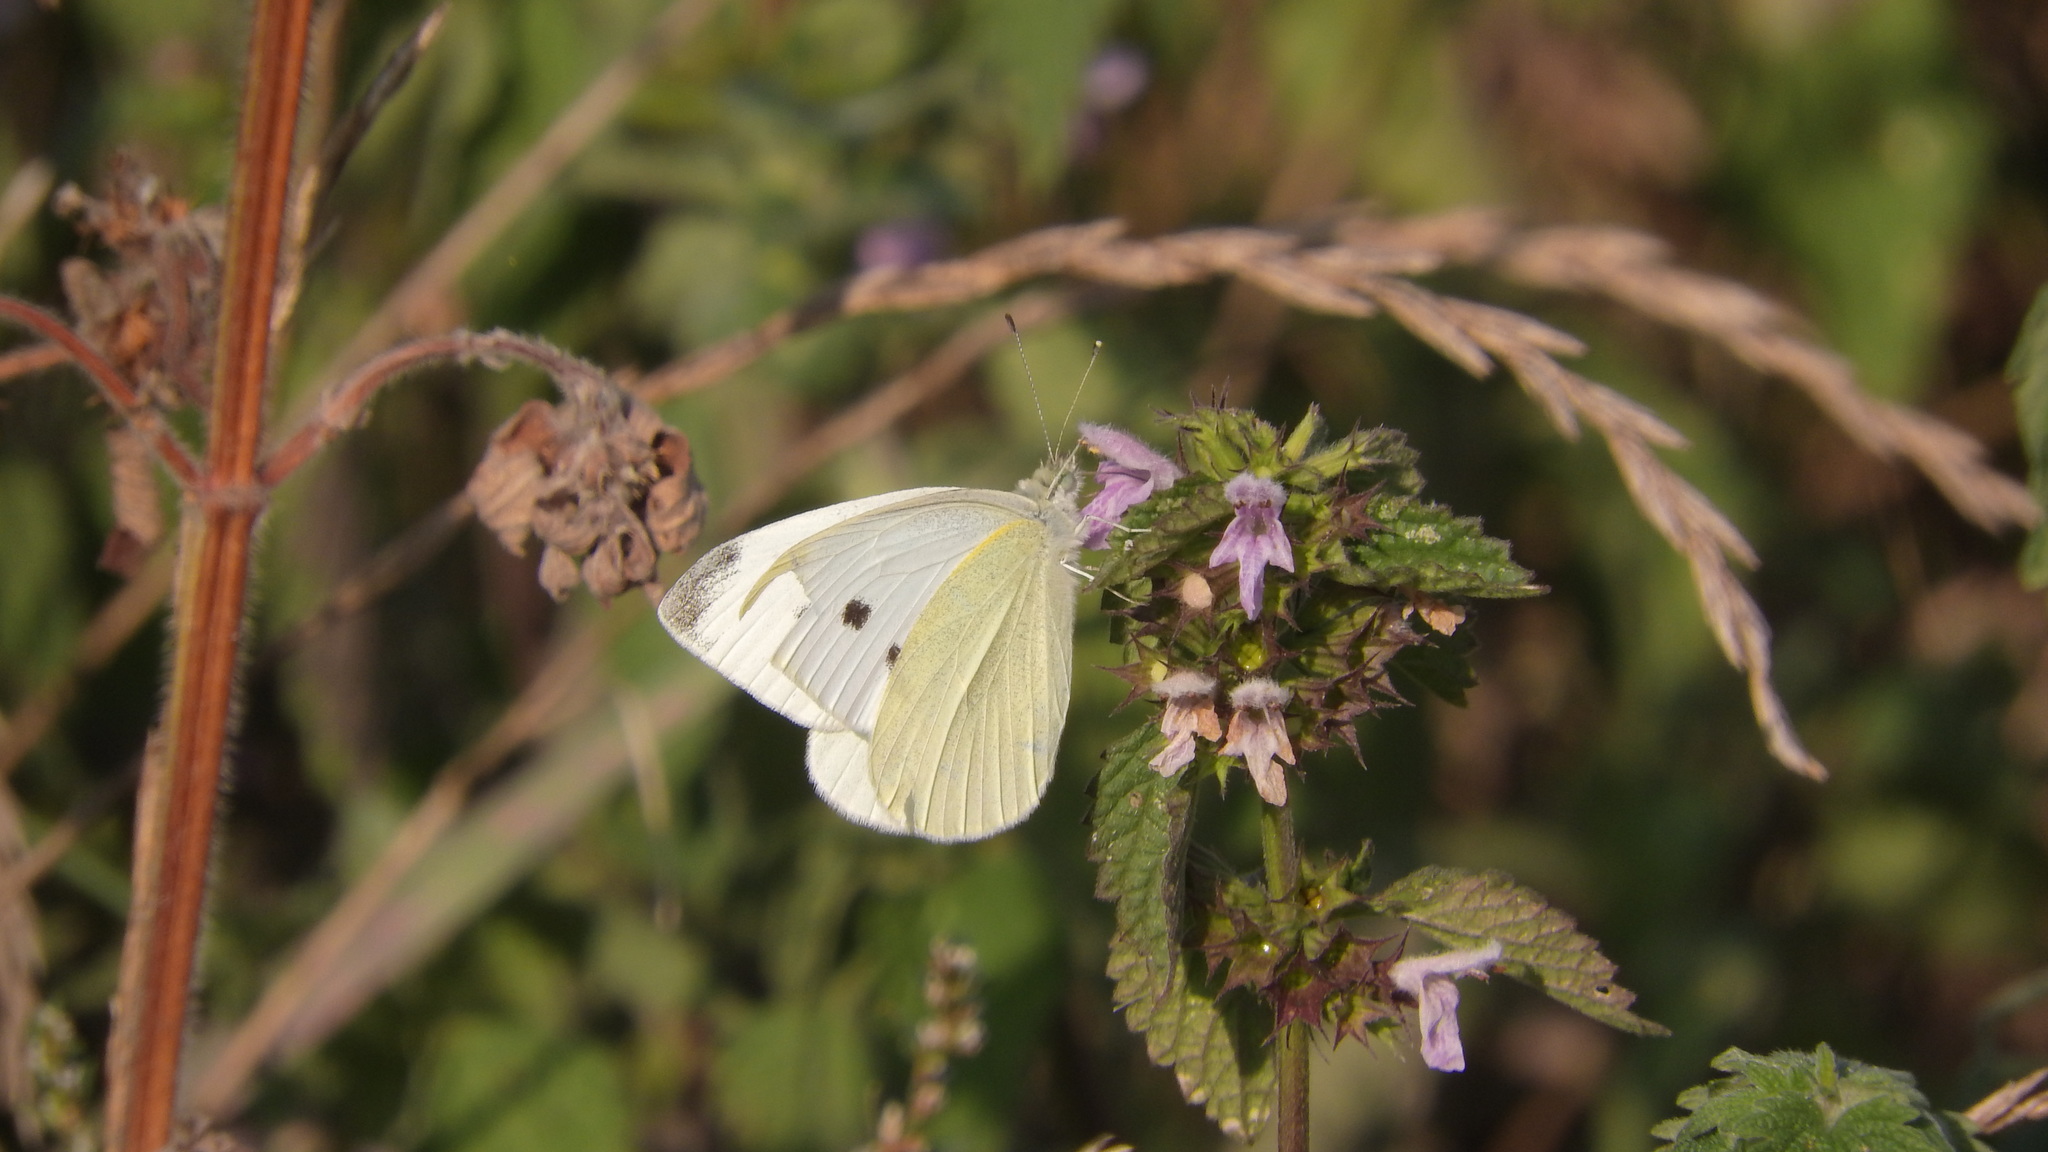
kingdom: Animalia
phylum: Arthropoda
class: Insecta
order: Lepidoptera
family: Pieridae
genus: Pieris
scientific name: Pieris rapae
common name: Small white
